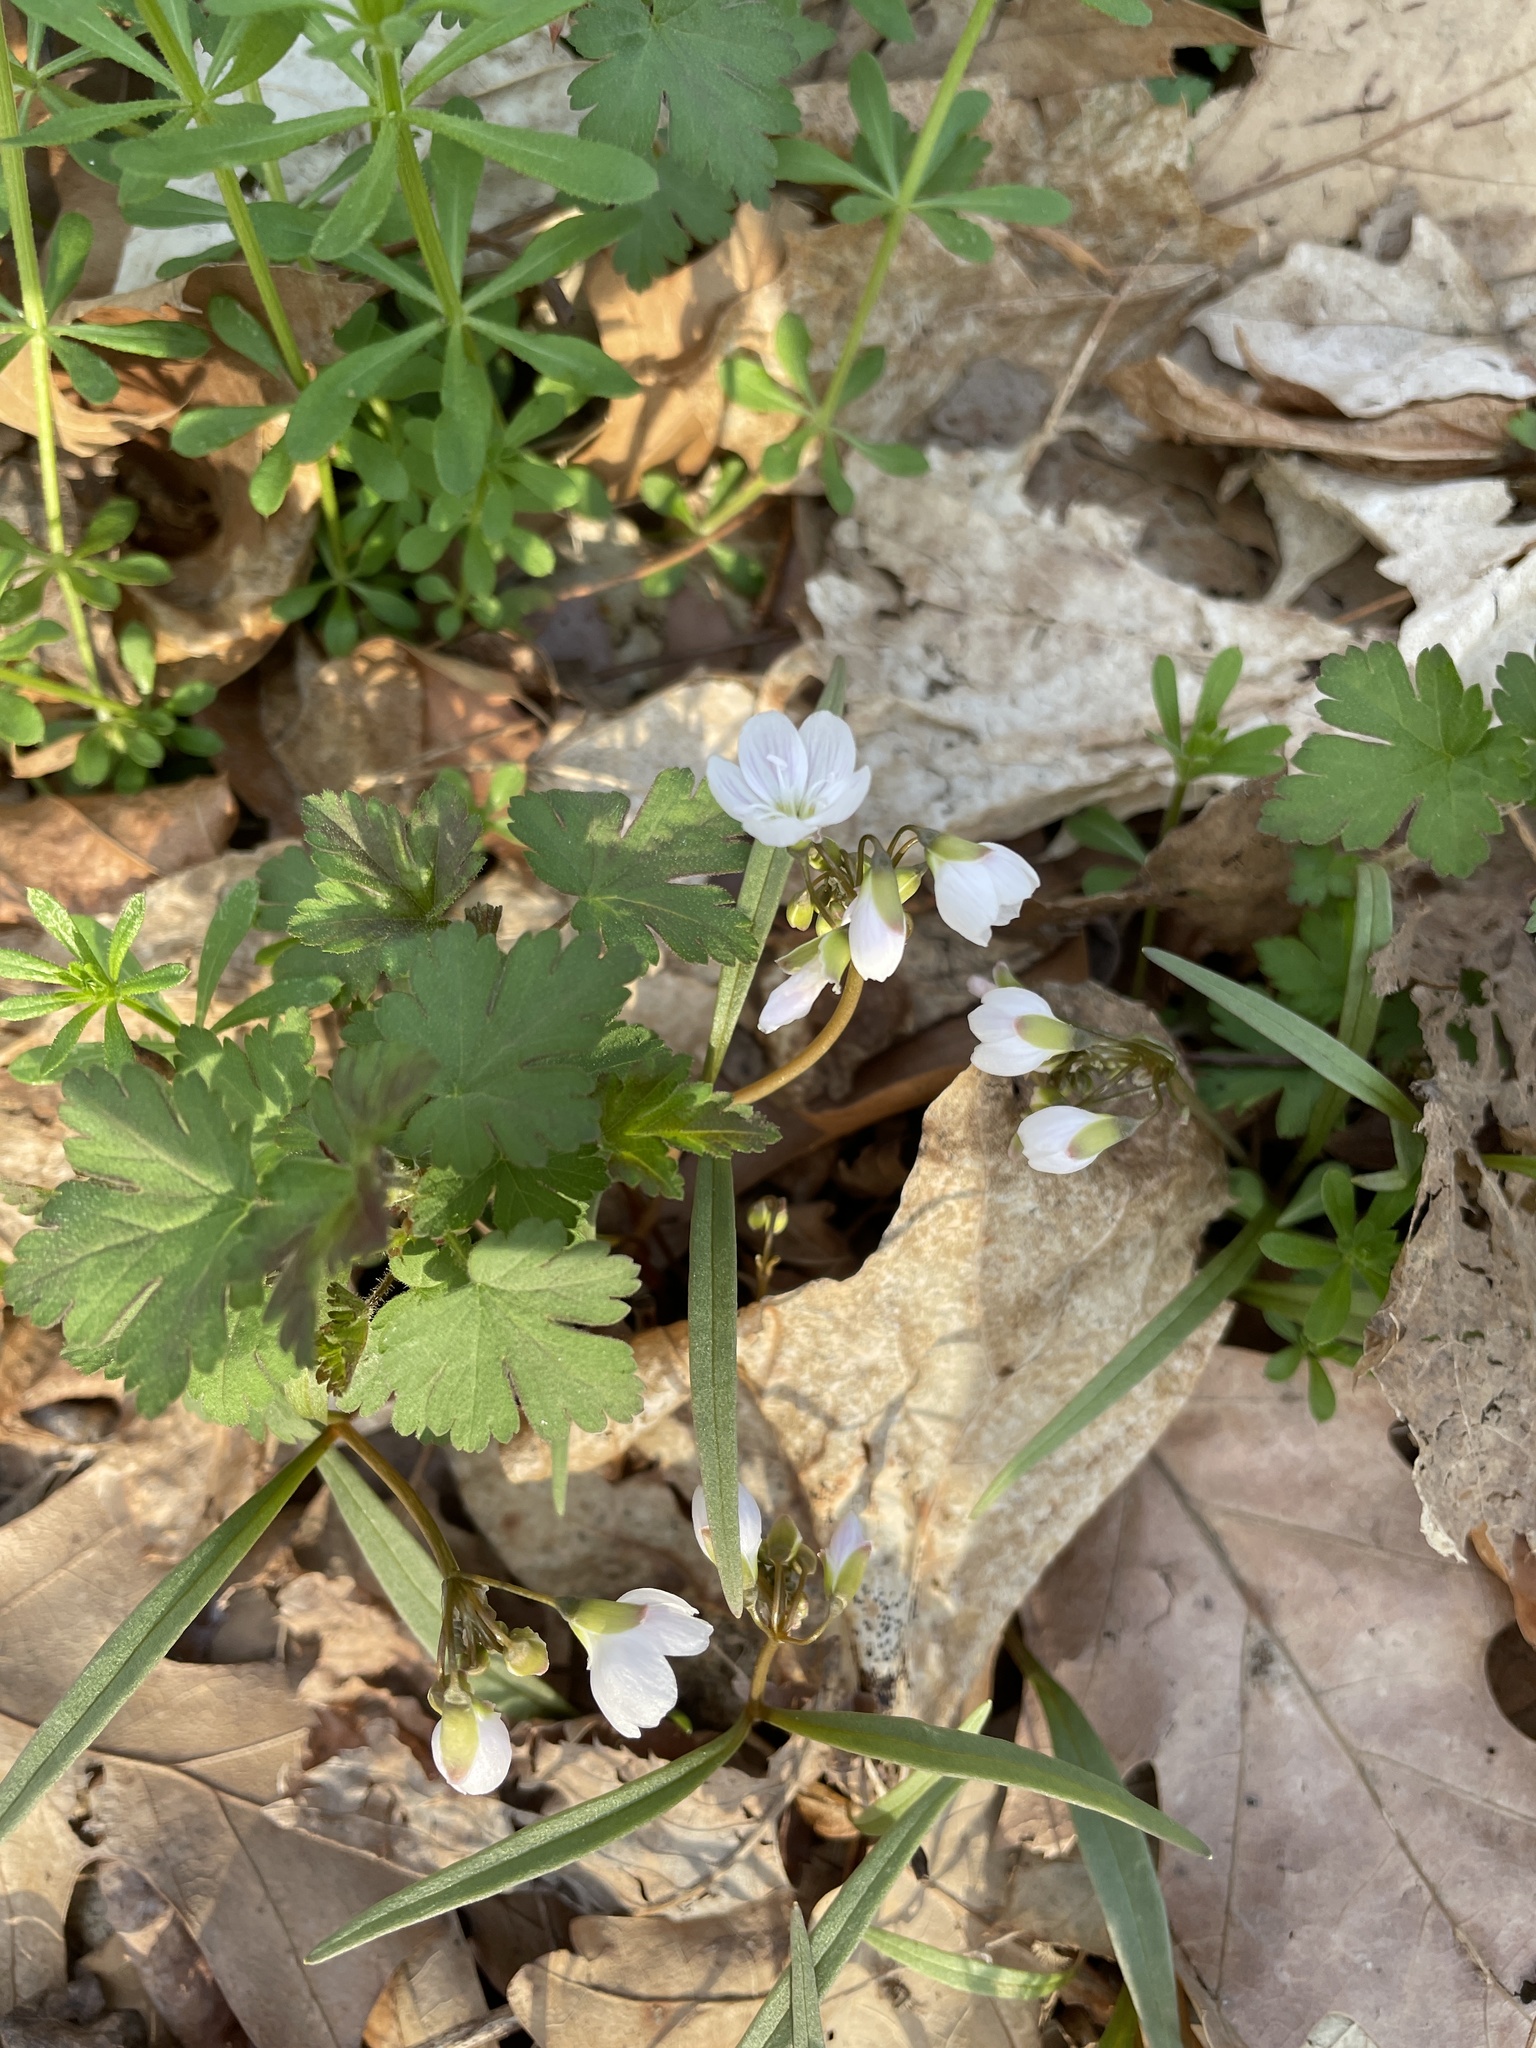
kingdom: Plantae
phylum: Tracheophyta
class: Magnoliopsida
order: Caryophyllales
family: Montiaceae
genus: Claytonia
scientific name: Claytonia virginica
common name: Virginia springbeauty
